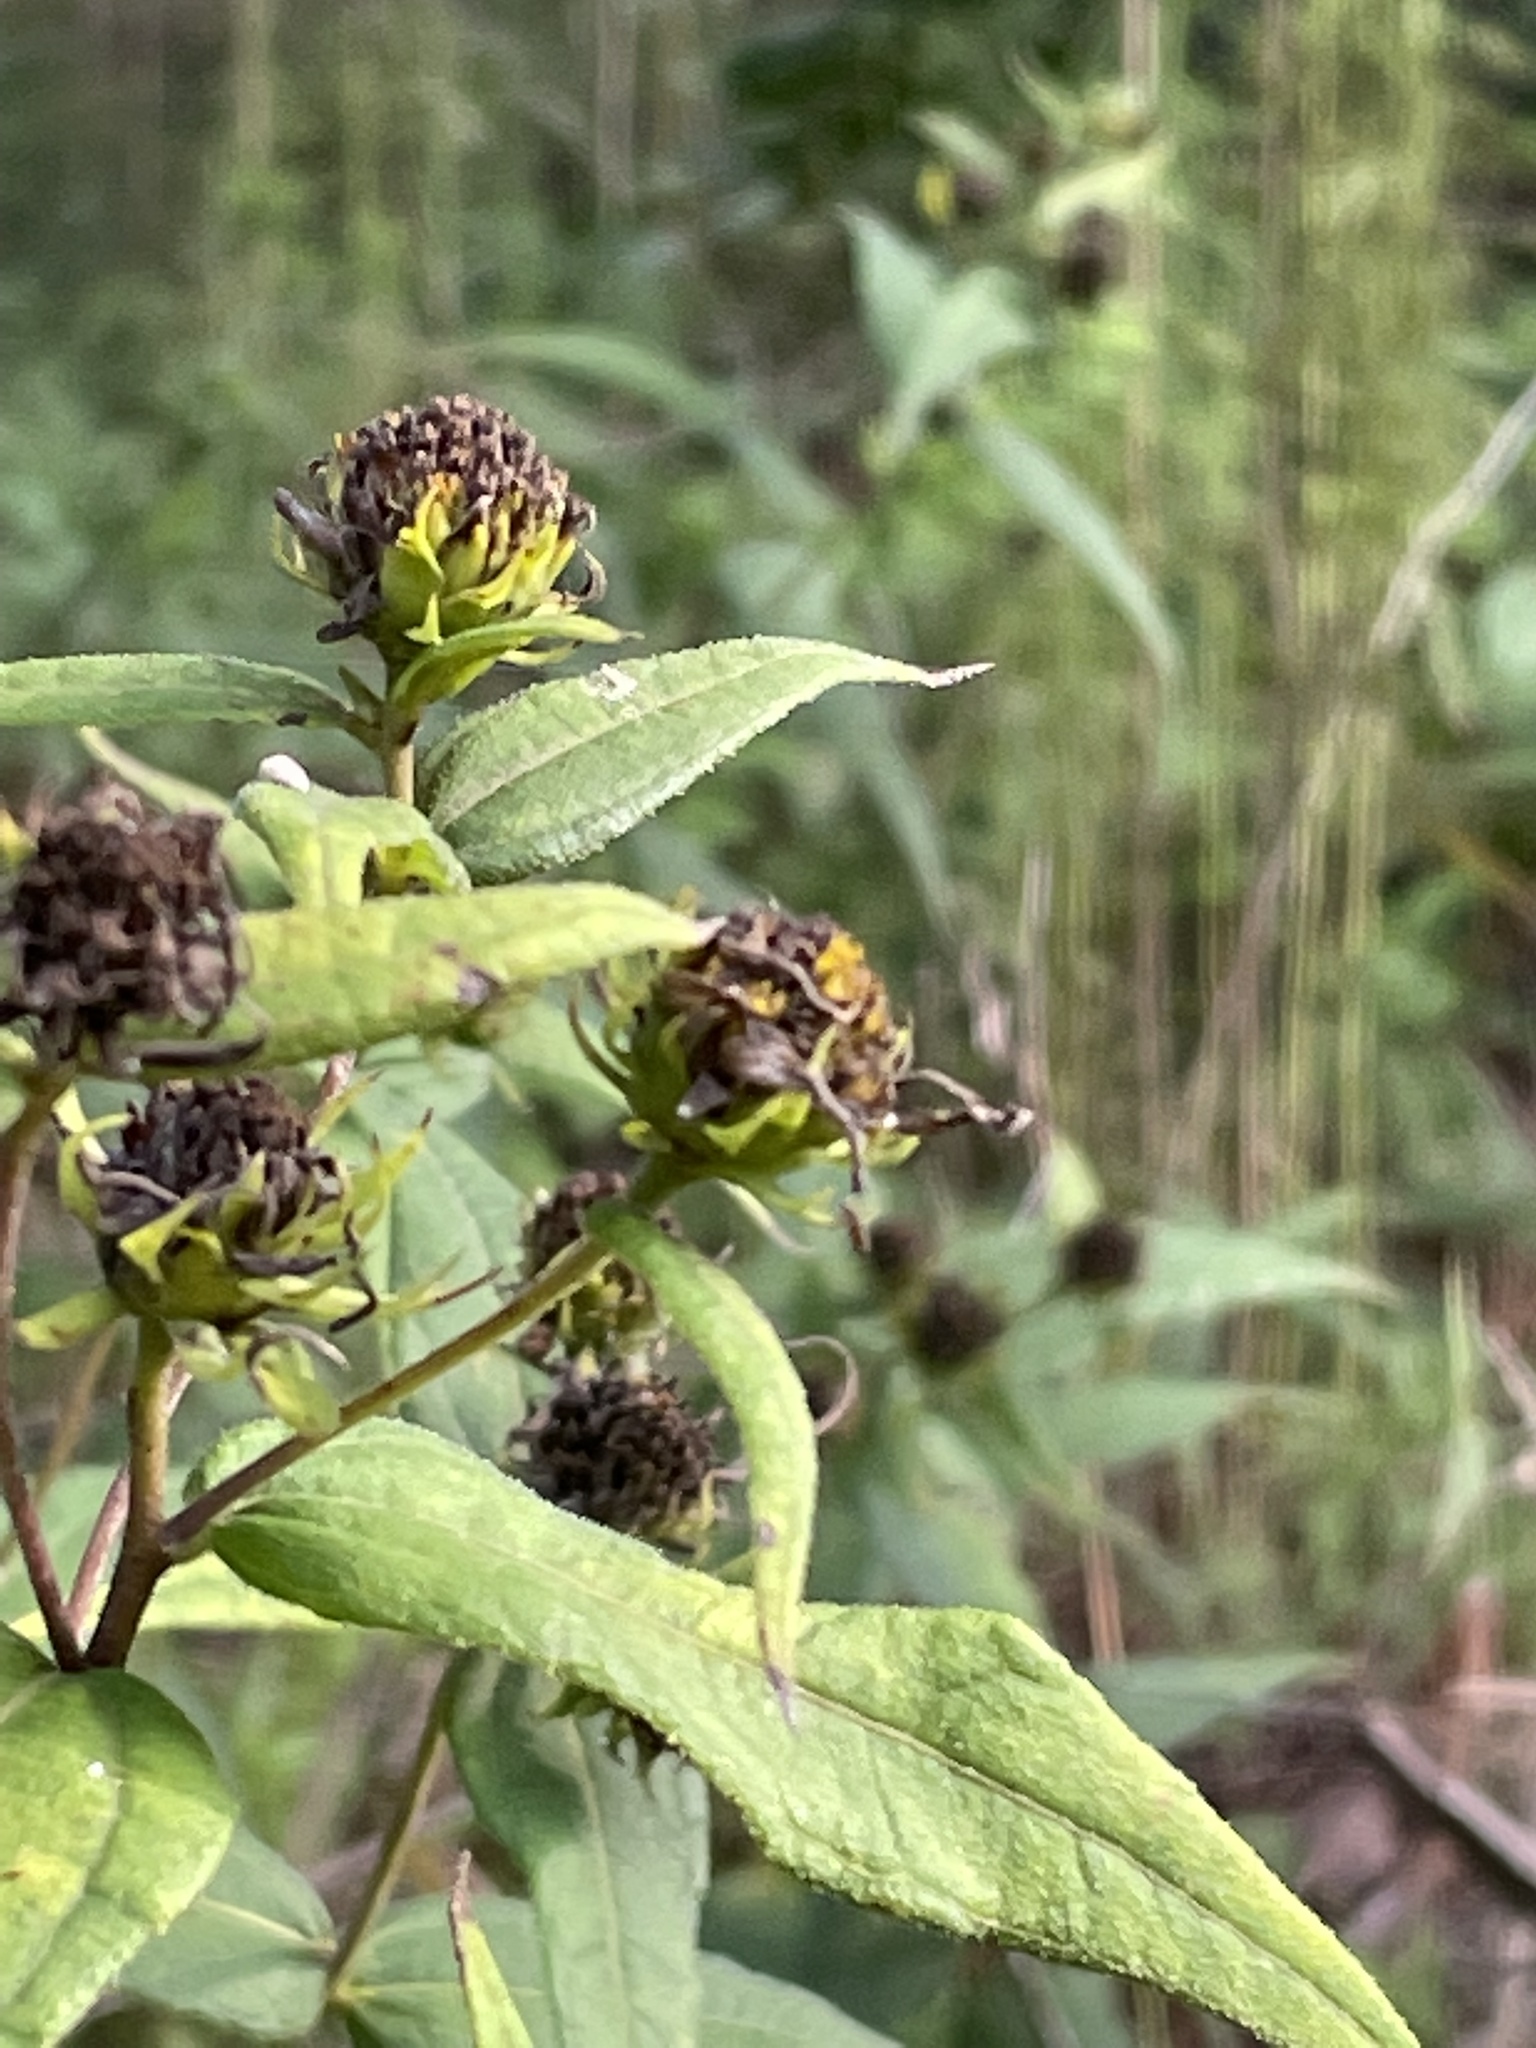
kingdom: Plantae
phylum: Tracheophyta
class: Magnoliopsida
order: Asterales
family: Asteraceae
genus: Helianthus
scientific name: Helianthus divaricatus
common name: Divergent sunflower
